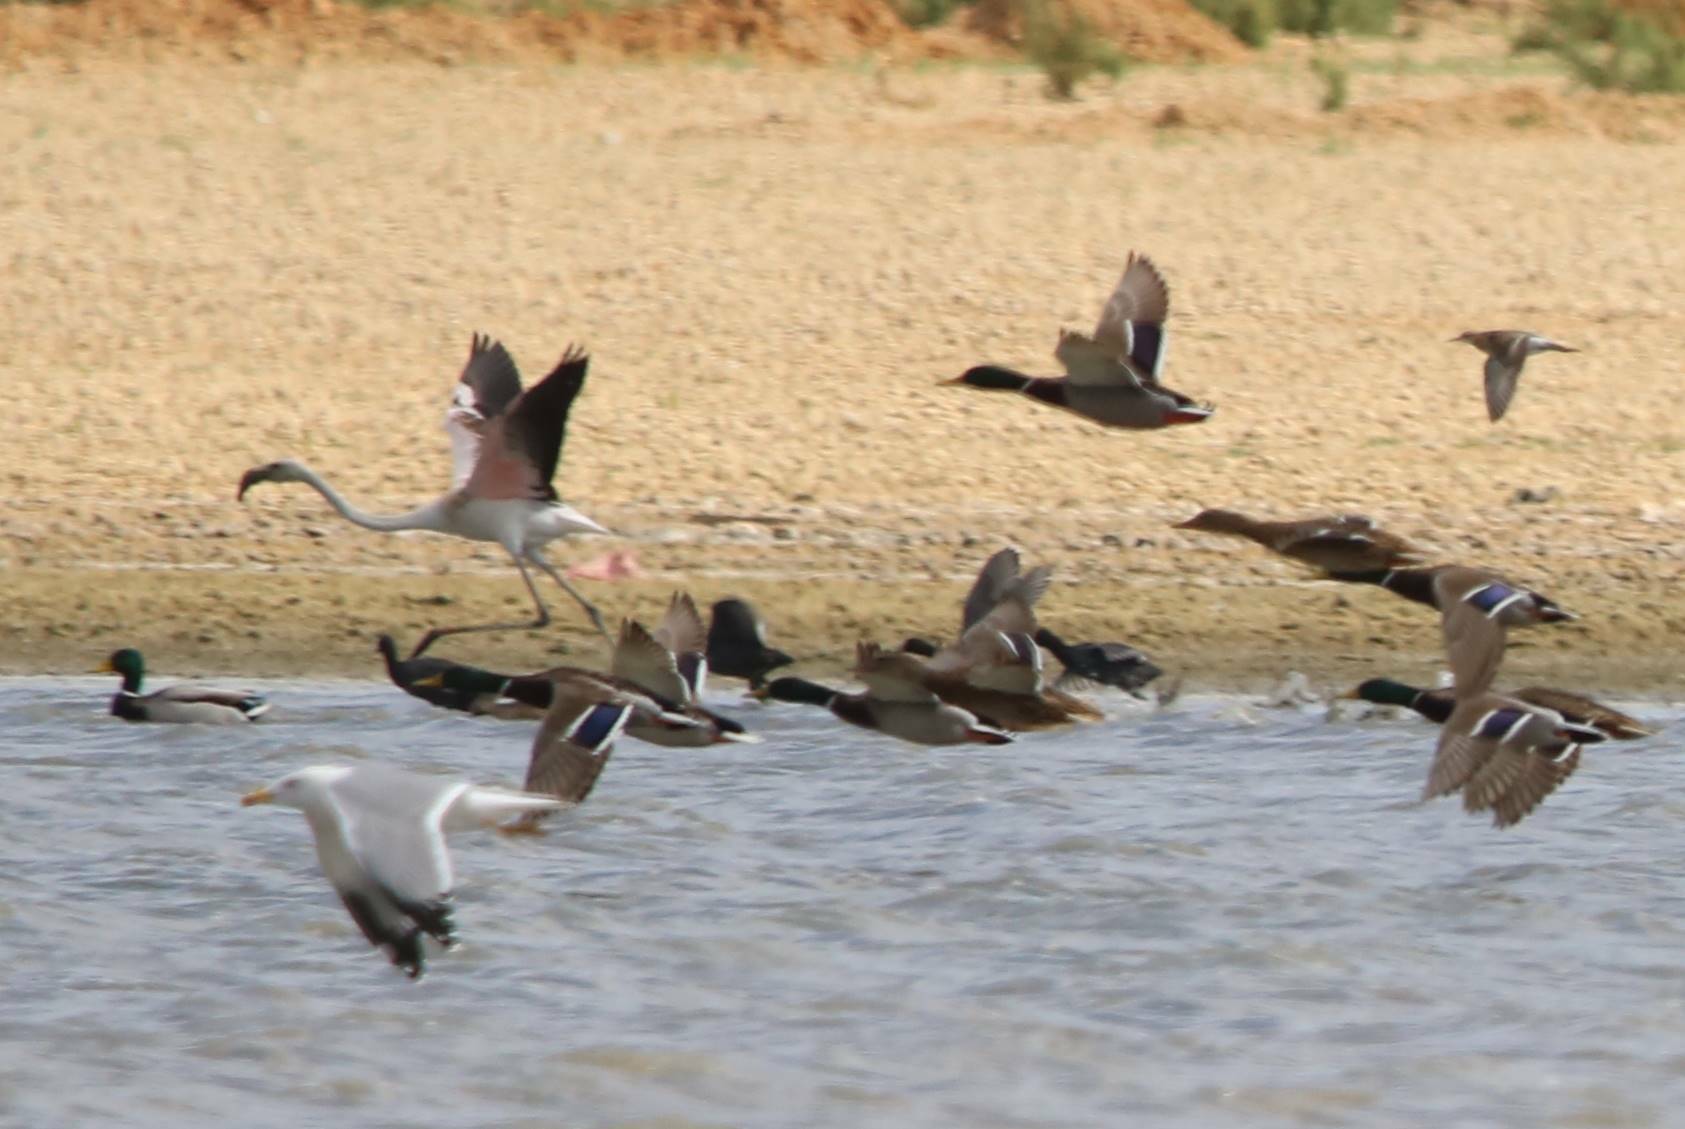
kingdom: Animalia
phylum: Chordata
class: Aves
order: Anseriformes
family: Anatidae
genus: Anas
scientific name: Anas platyrhynchos
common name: Mallard
